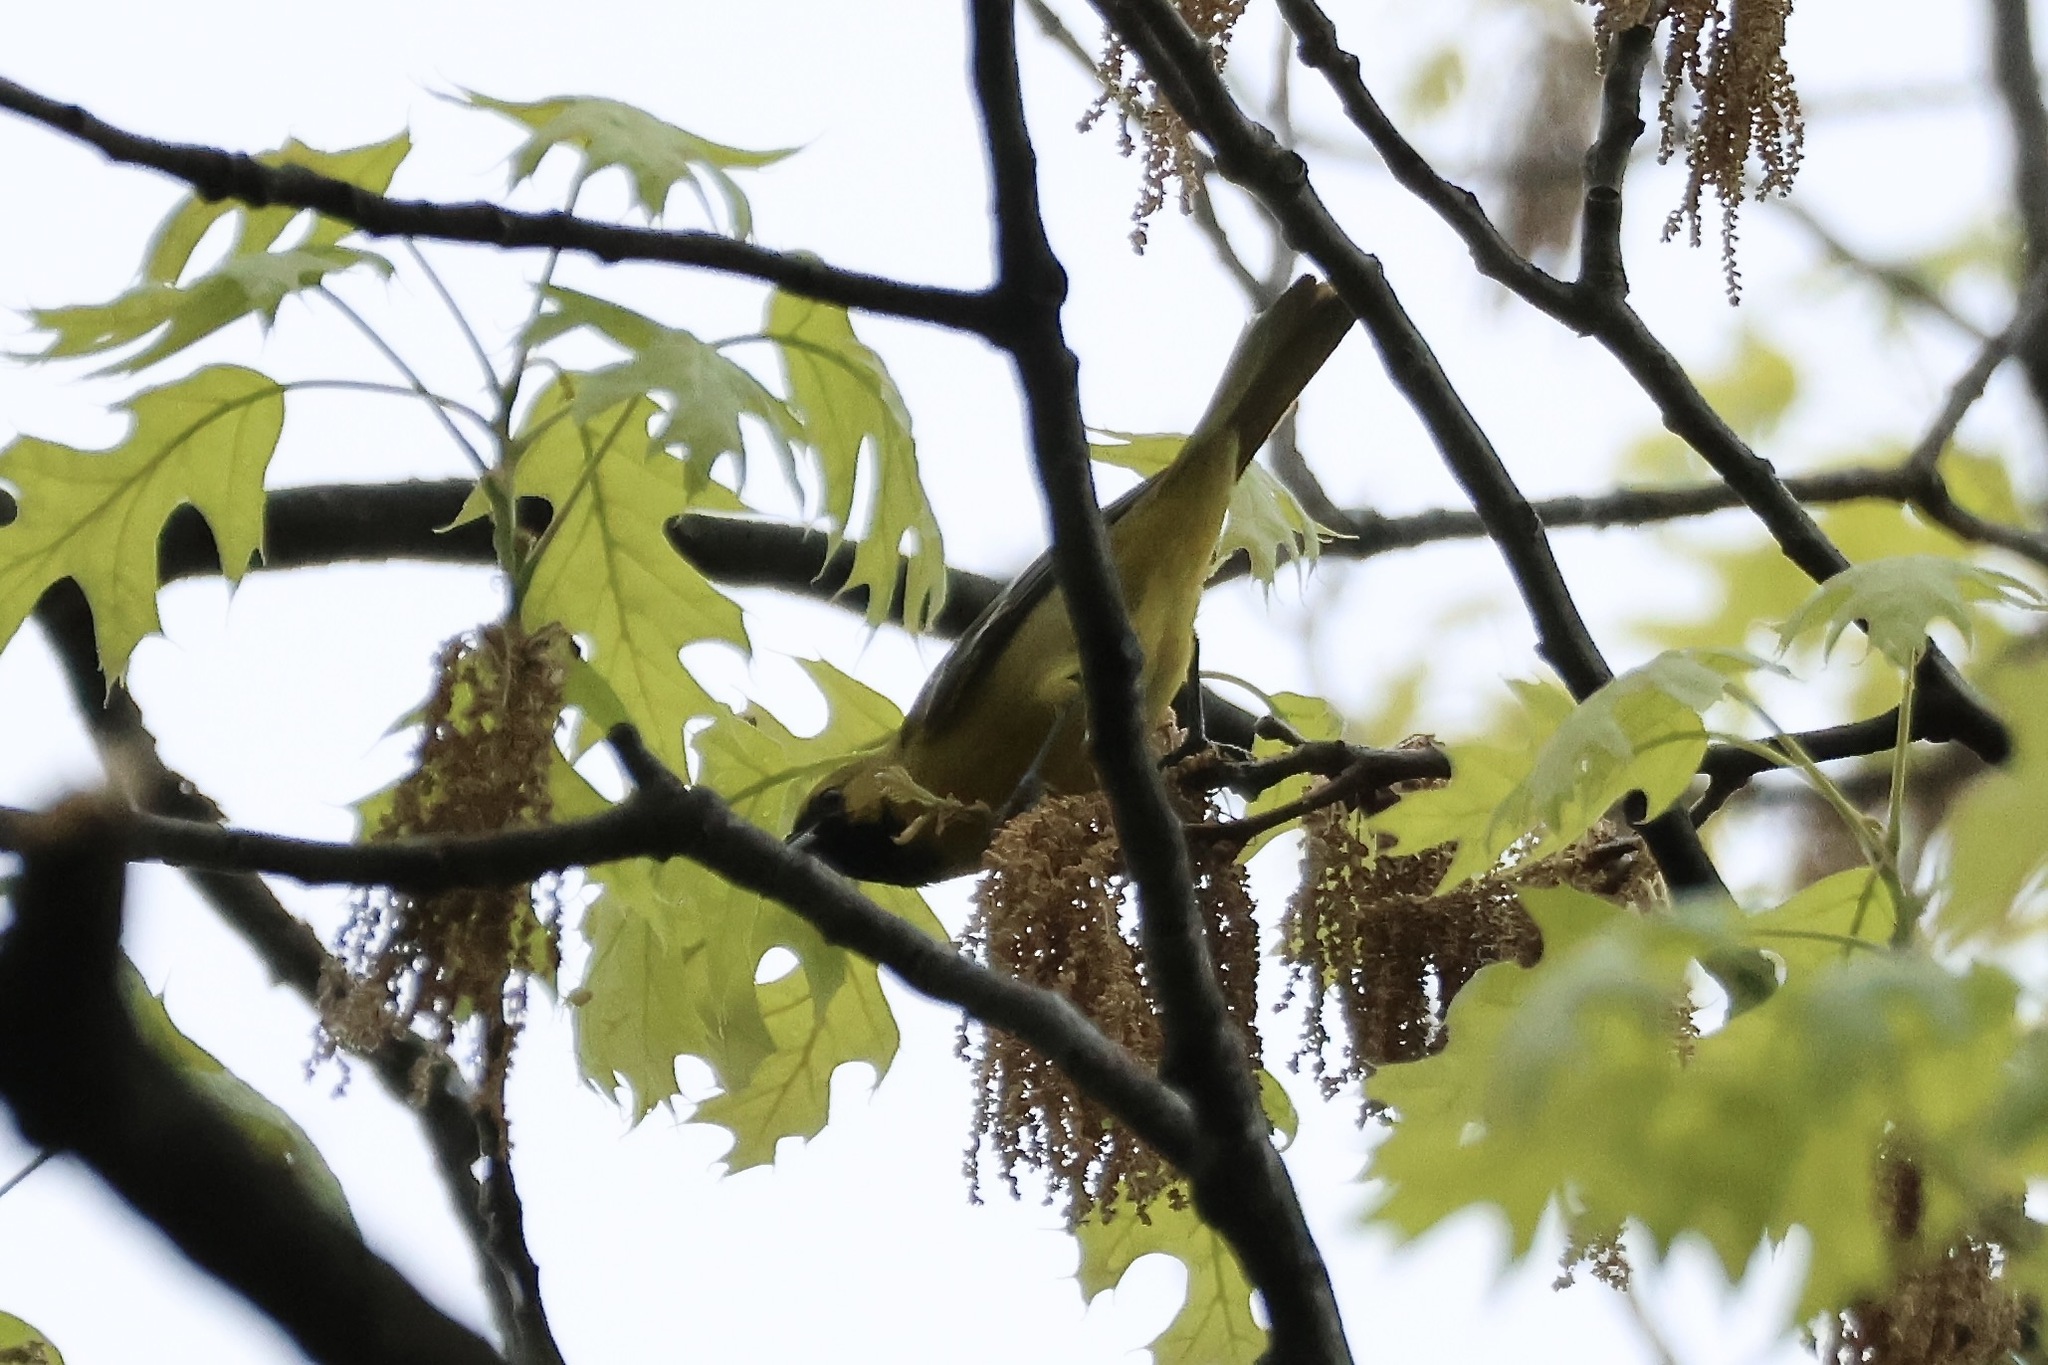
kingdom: Animalia
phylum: Chordata
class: Aves
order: Passeriformes
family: Icteridae
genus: Icterus
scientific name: Icterus spurius
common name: Orchard oriole
